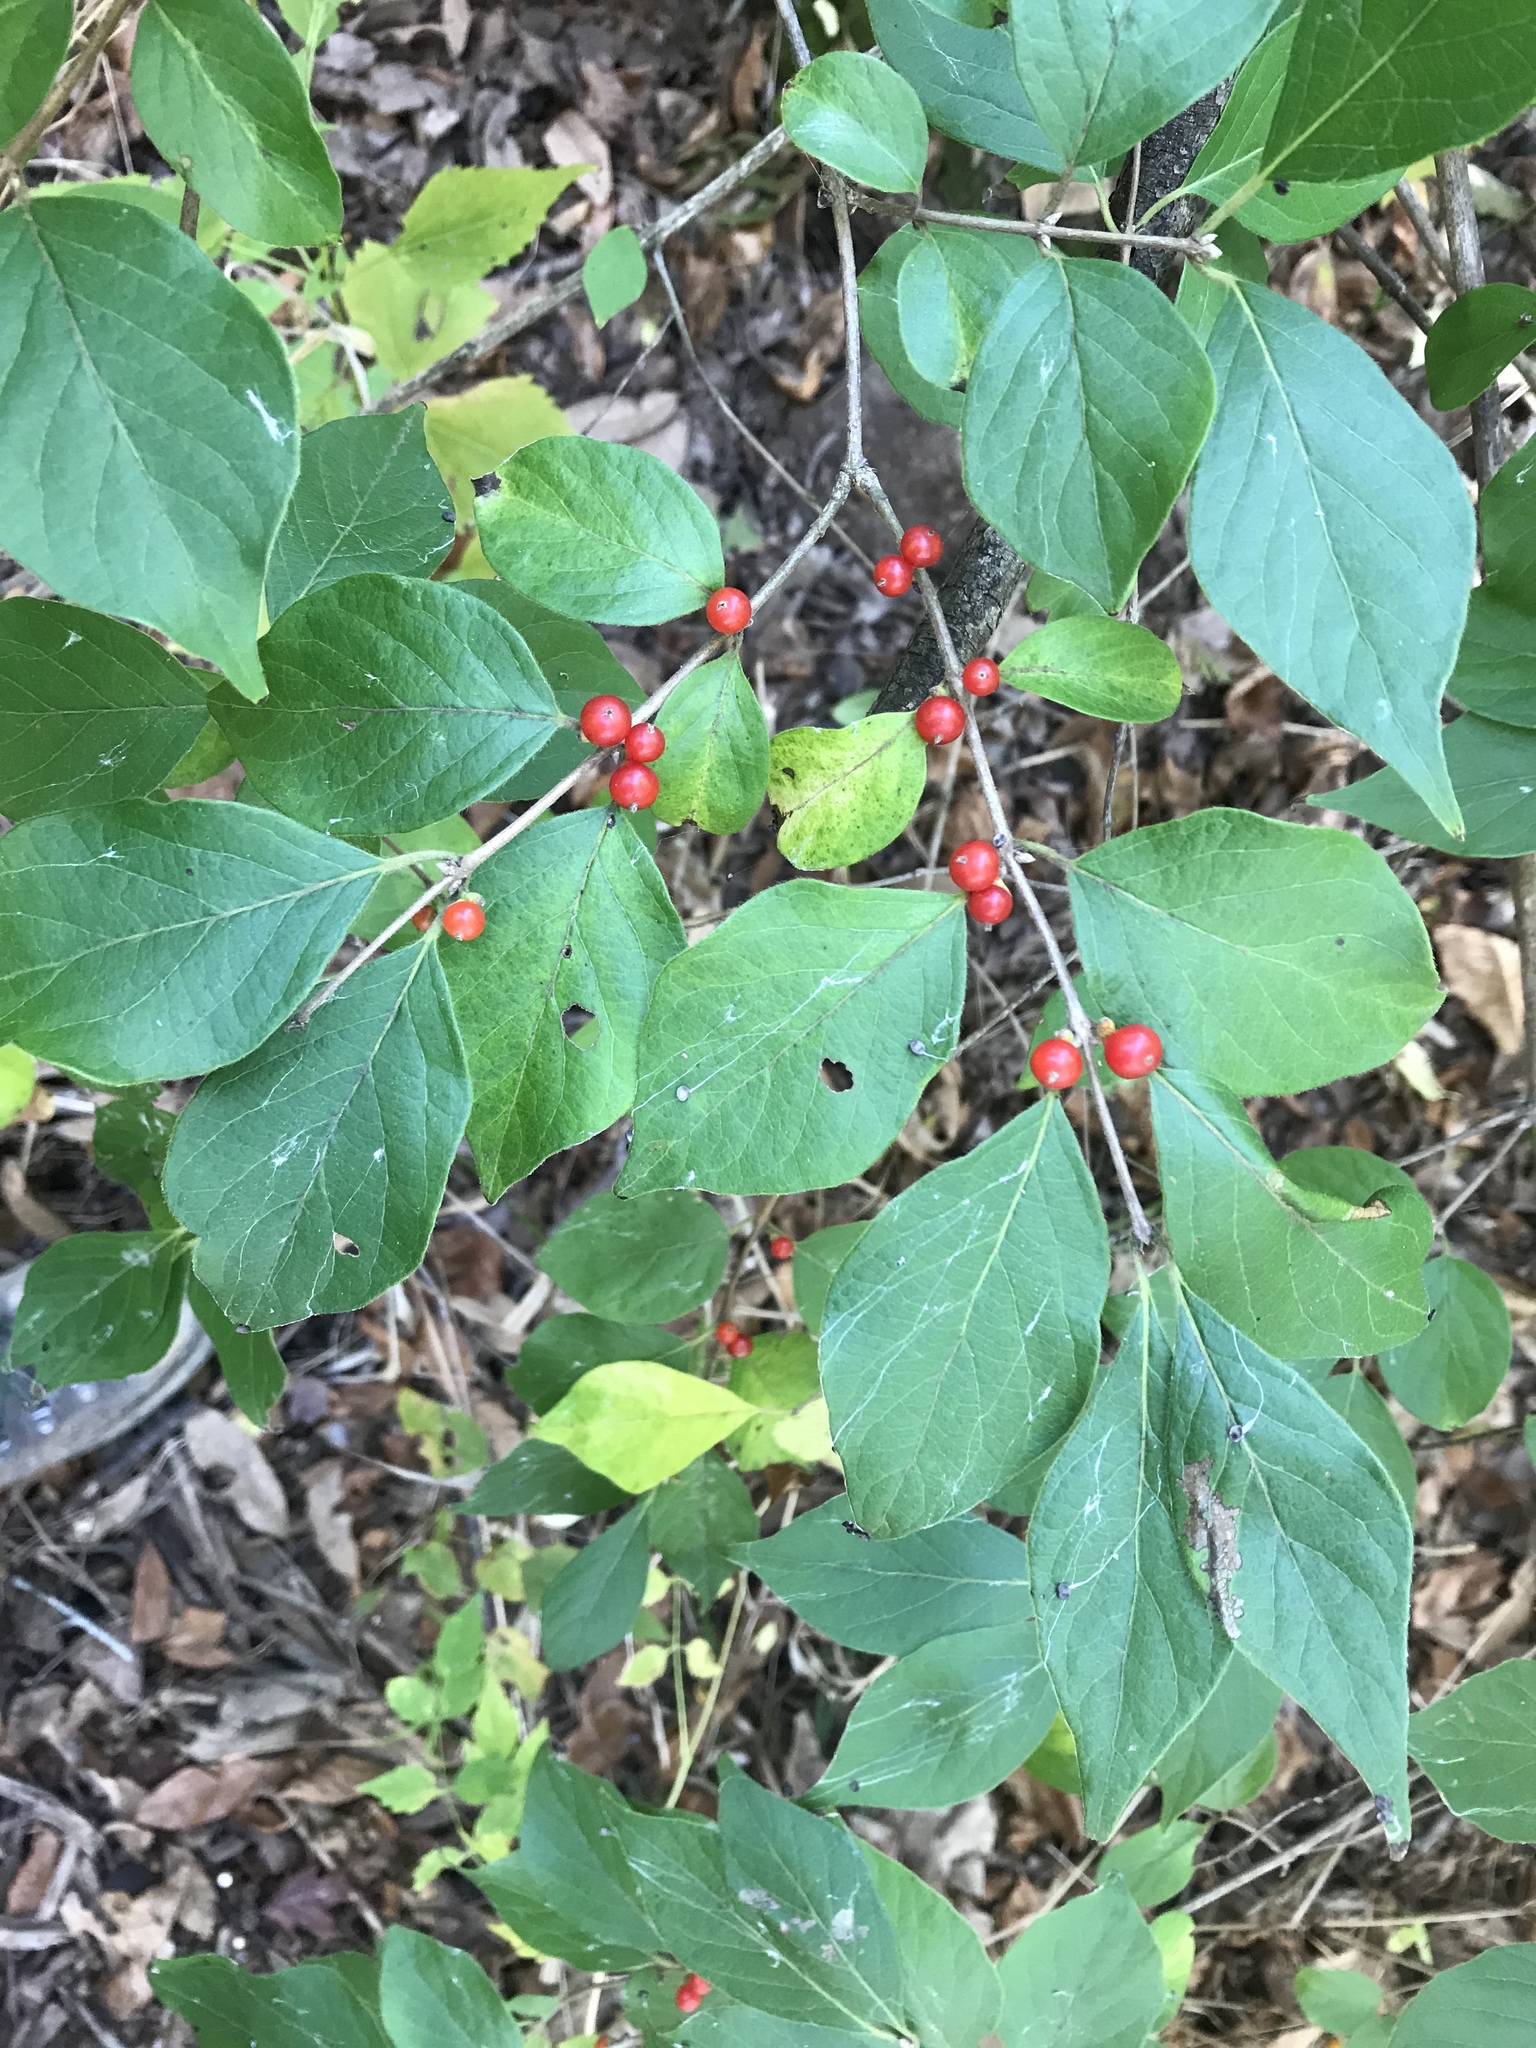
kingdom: Plantae
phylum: Tracheophyta
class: Magnoliopsida
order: Dipsacales
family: Caprifoliaceae
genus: Lonicera
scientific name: Lonicera maackii
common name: Amur honeysuckle
